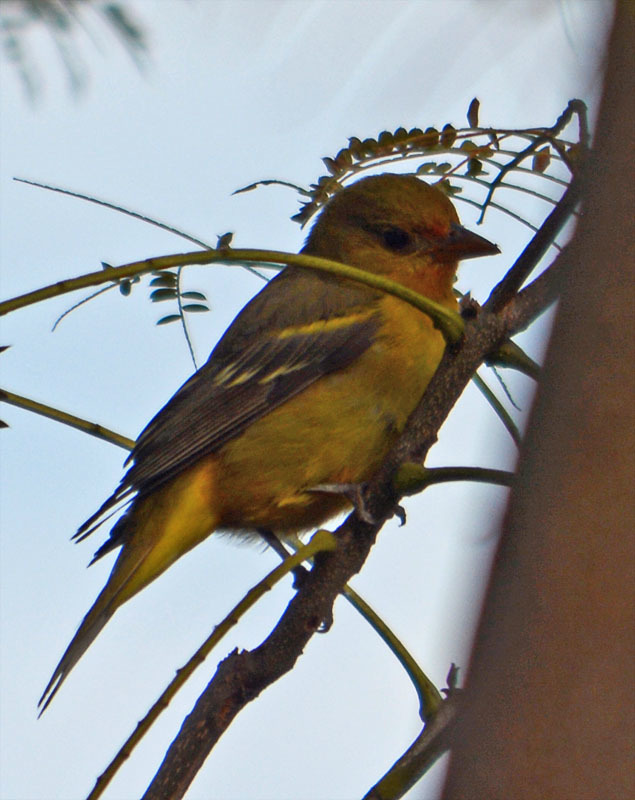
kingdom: Animalia
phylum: Chordata
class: Aves
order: Passeriformes
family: Cardinalidae
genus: Piranga
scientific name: Piranga ludoviciana
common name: Western tanager
